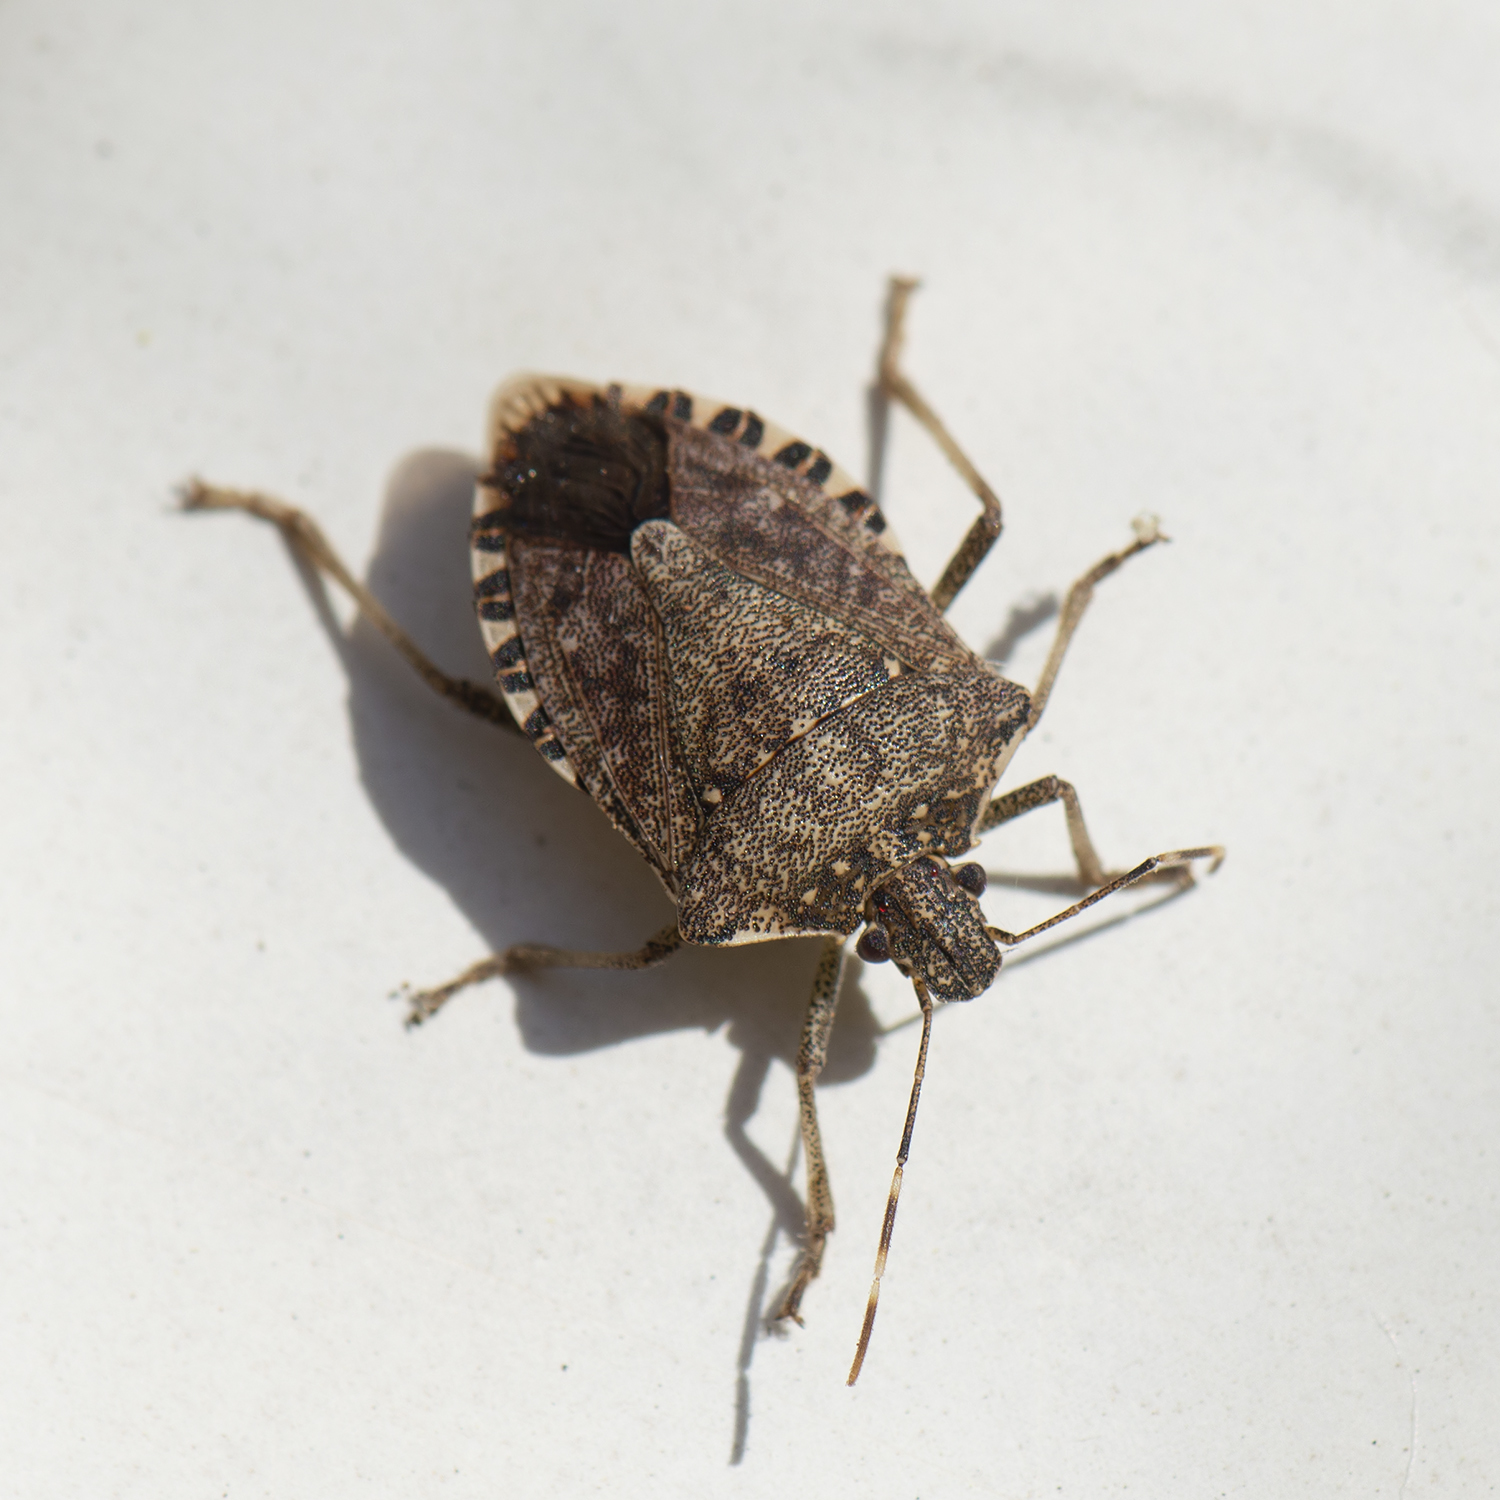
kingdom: Animalia
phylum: Arthropoda
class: Insecta
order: Hemiptera
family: Pentatomidae
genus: Halyomorpha
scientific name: Halyomorpha halys
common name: Brown marmorated stink bug
